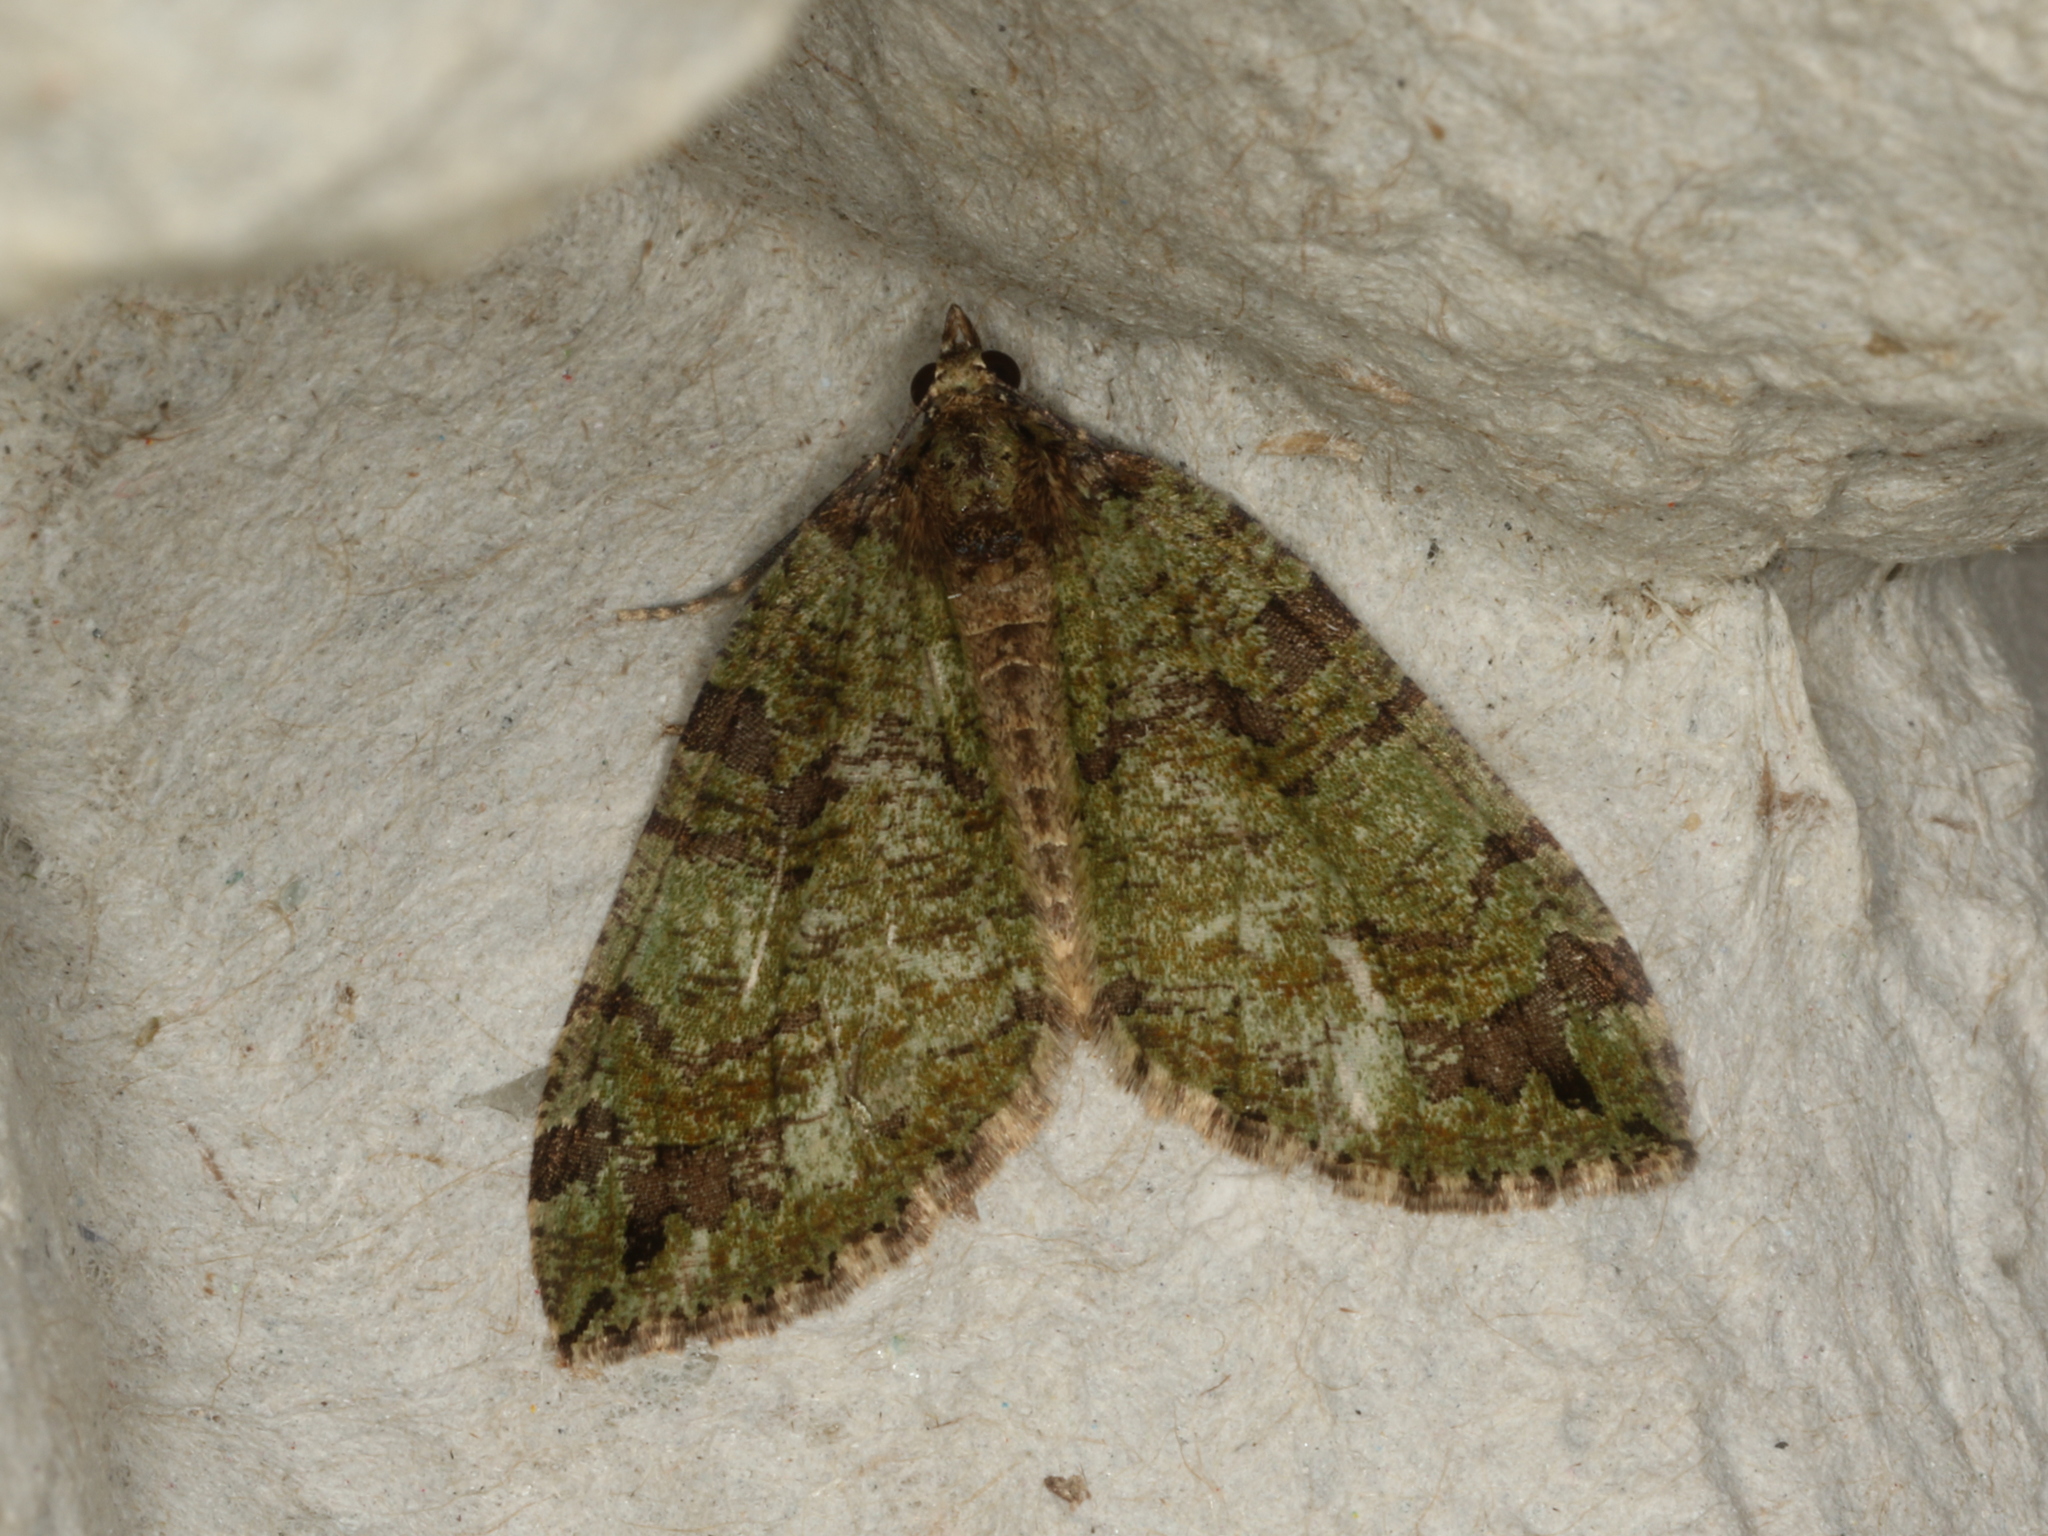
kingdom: Animalia
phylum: Arthropoda
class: Insecta
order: Lepidoptera
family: Geometridae
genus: Hydriomena
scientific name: Hydriomena furcata
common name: July highflyer
